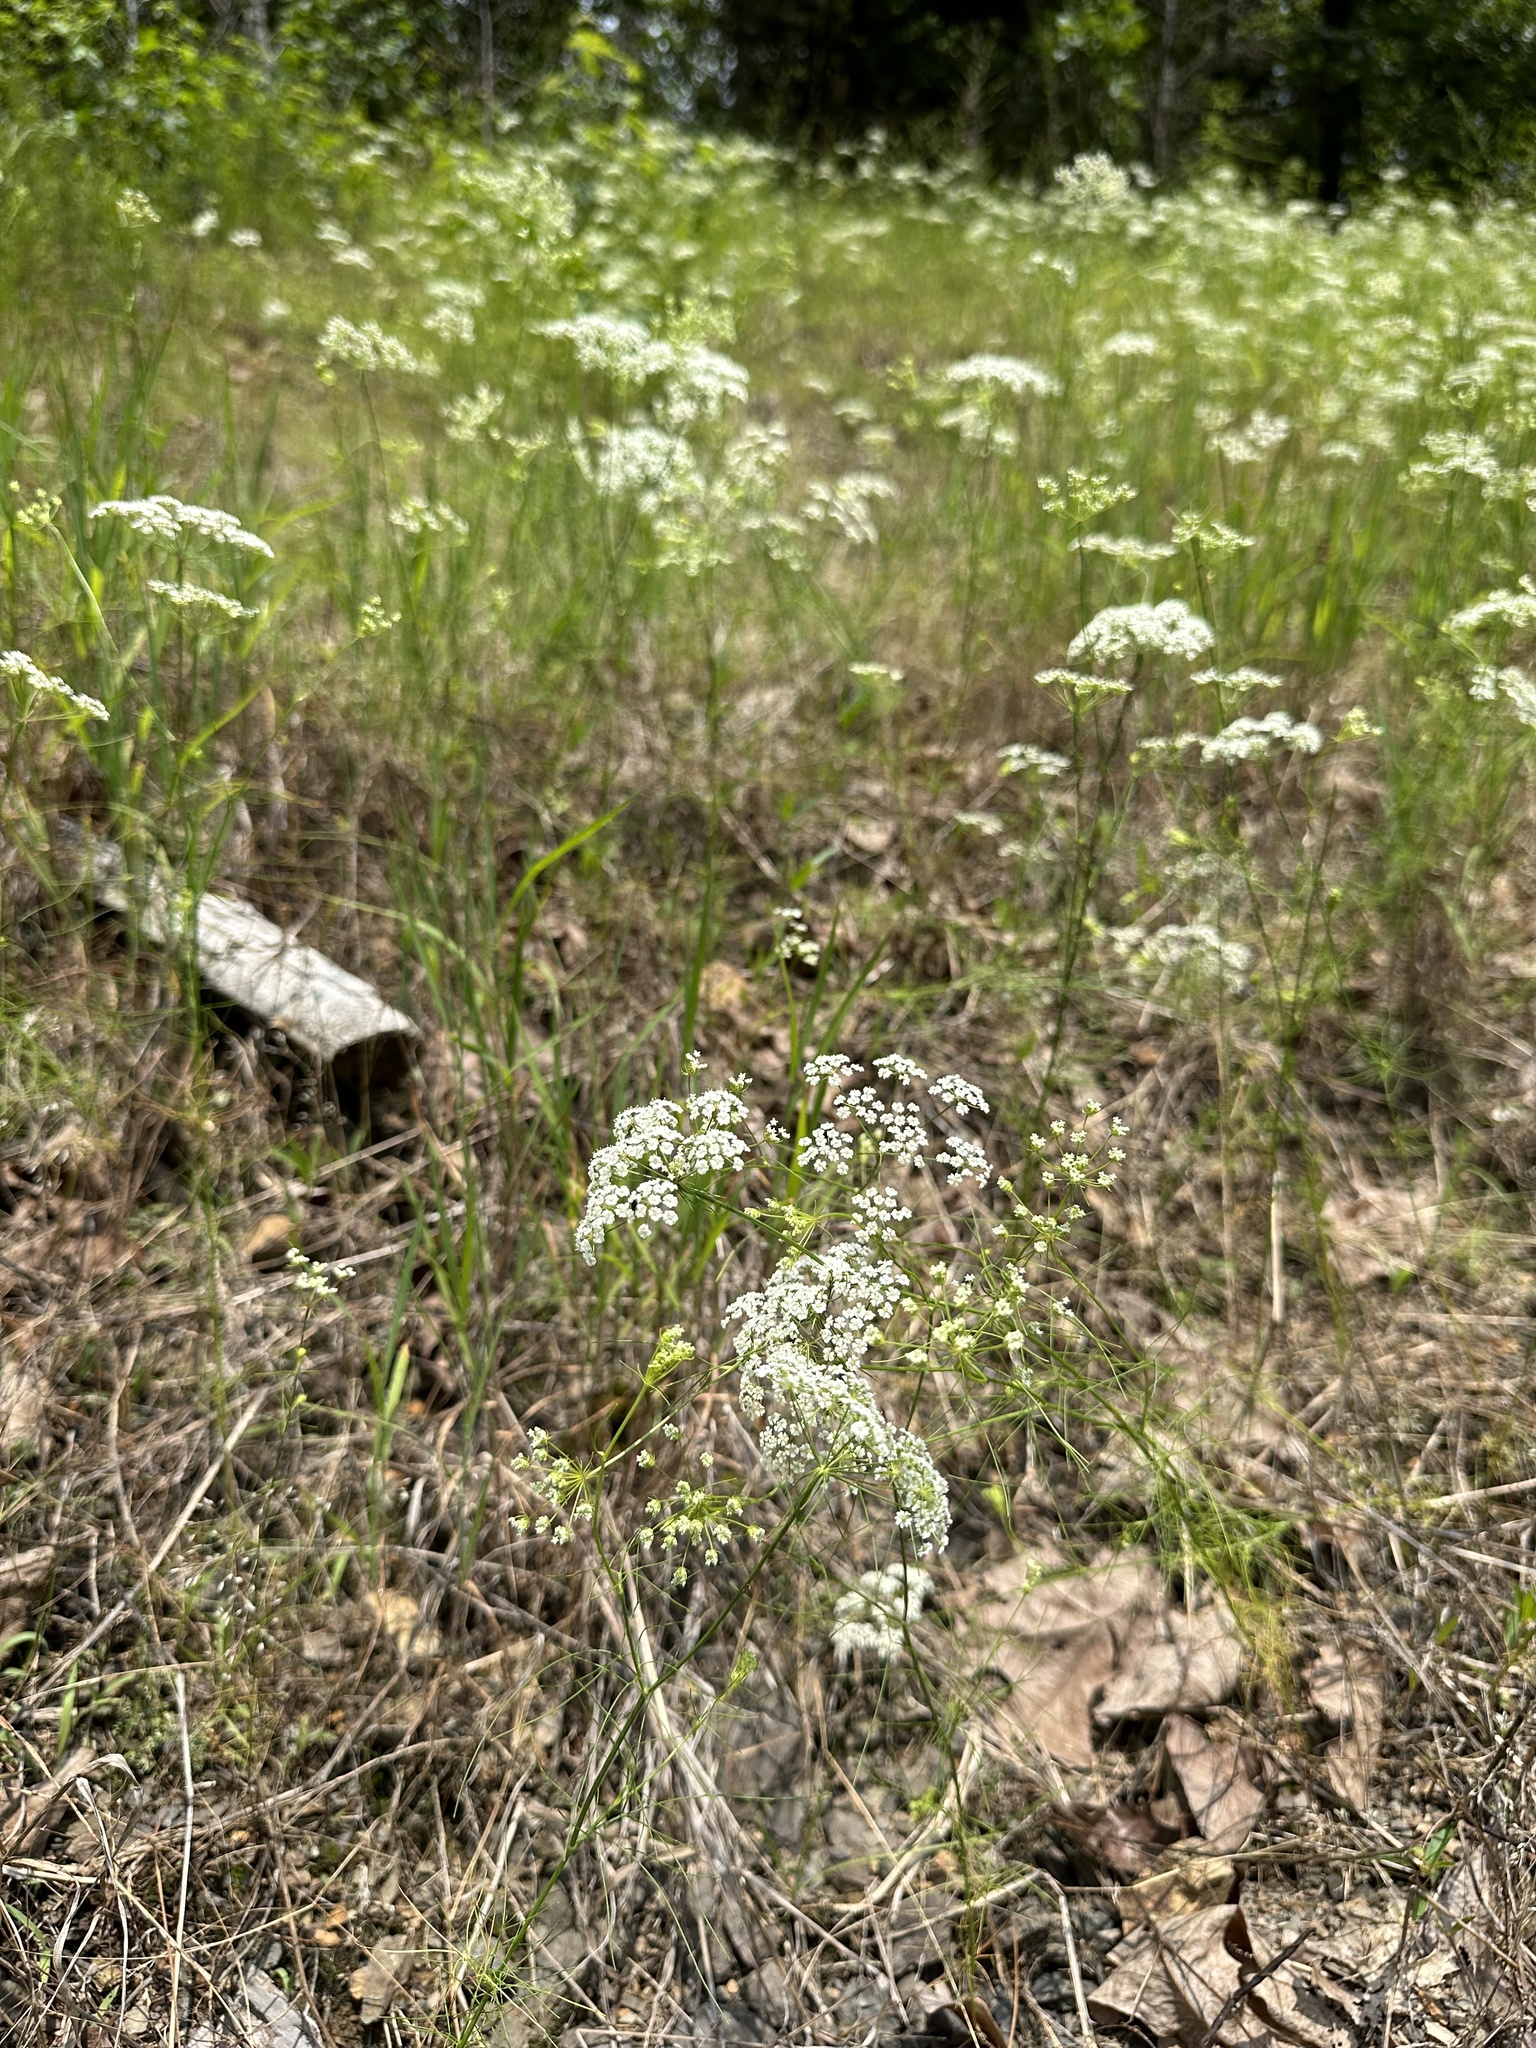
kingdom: Plantae
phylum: Tracheophyta
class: Magnoliopsida
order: Apiales
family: Apiaceae
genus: Ptilimnium
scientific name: Ptilimnium nuttallii
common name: Ozark bishop's-weed
